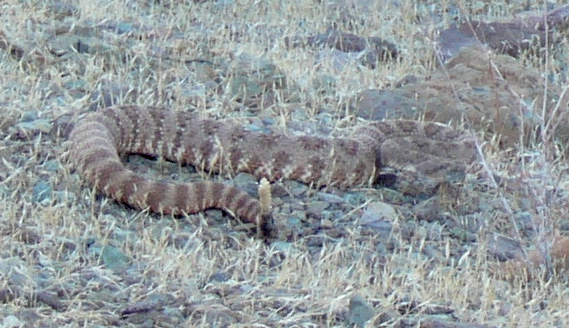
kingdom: Animalia
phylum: Chordata
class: Squamata
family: Viperidae
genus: Crotalus
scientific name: Crotalus pyrrhus
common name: Southwestern speckled rattlesnake
